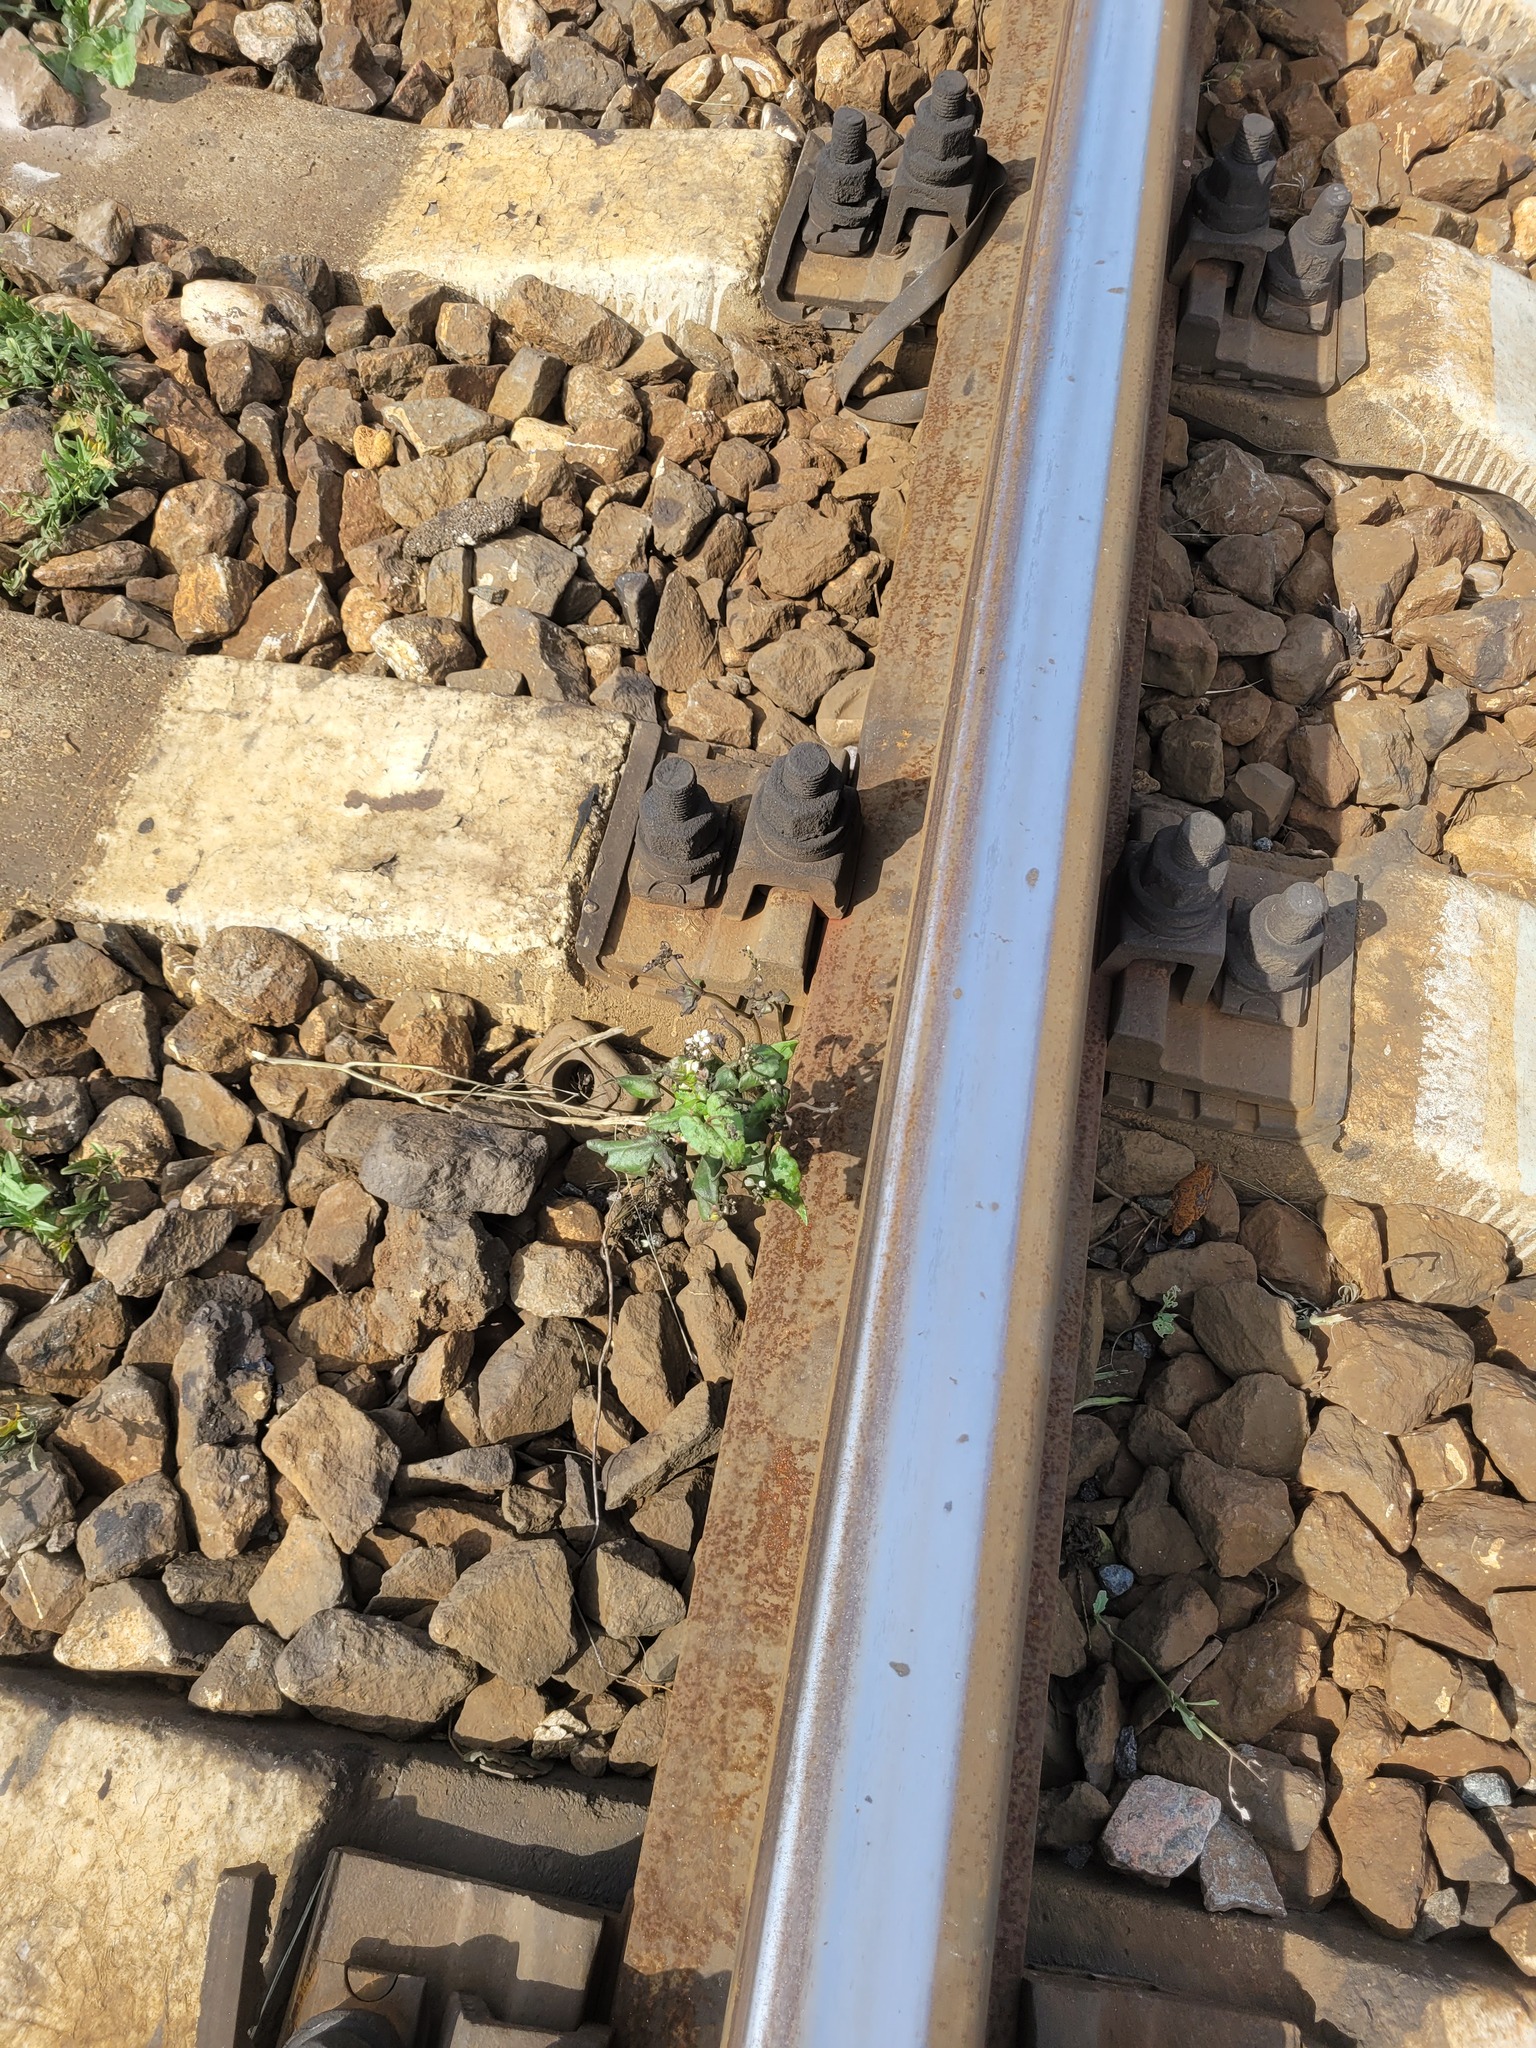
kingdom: Plantae
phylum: Tracheophyta
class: Magnoliopsida
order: Caryophyllales
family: Polygonaceae
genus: Fagopyrum
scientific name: Fagopyrum esculentum
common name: Buckwheat
